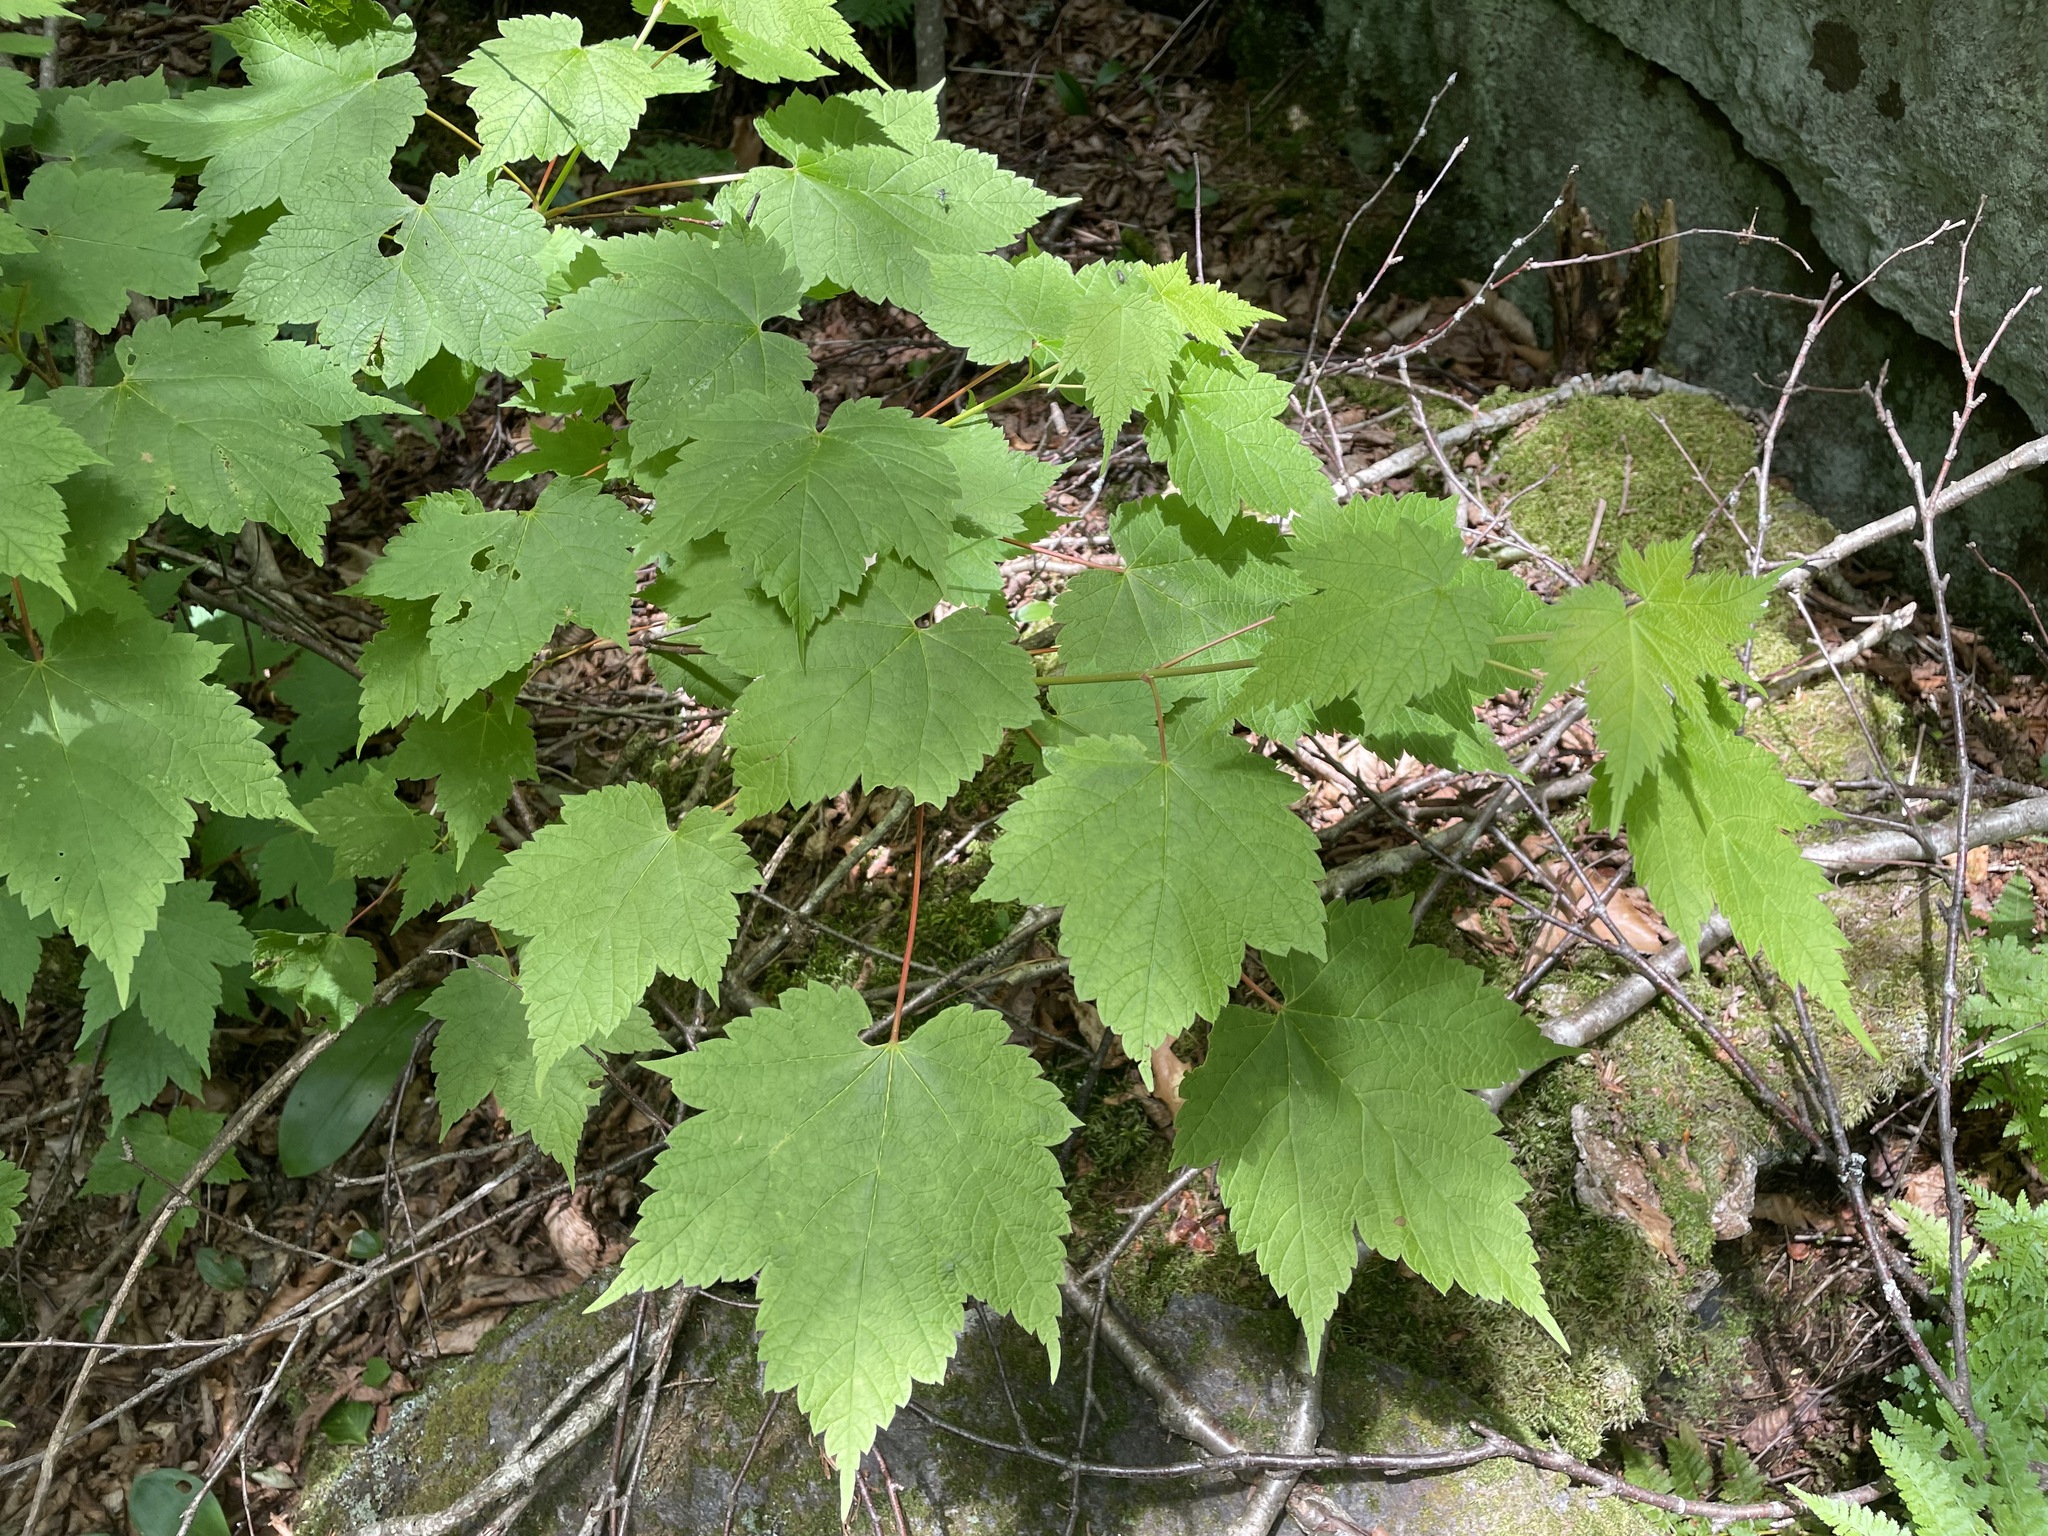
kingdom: Plantae
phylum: Tracheophyta
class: Magnoliopsida
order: Sapindales
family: Sapindaceae
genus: Acer
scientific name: Acer spicatum
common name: Mountain maple
